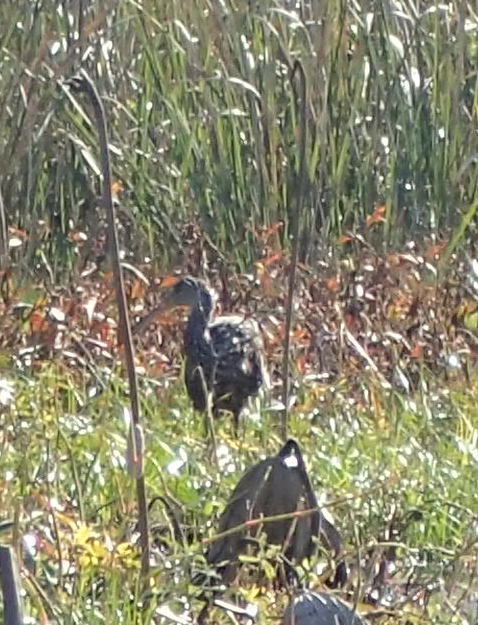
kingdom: Animalia
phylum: Chordata
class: Aves
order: Gruiformes
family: Aramidae
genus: Aramus
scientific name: Aramus guarauna
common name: Limpkin
